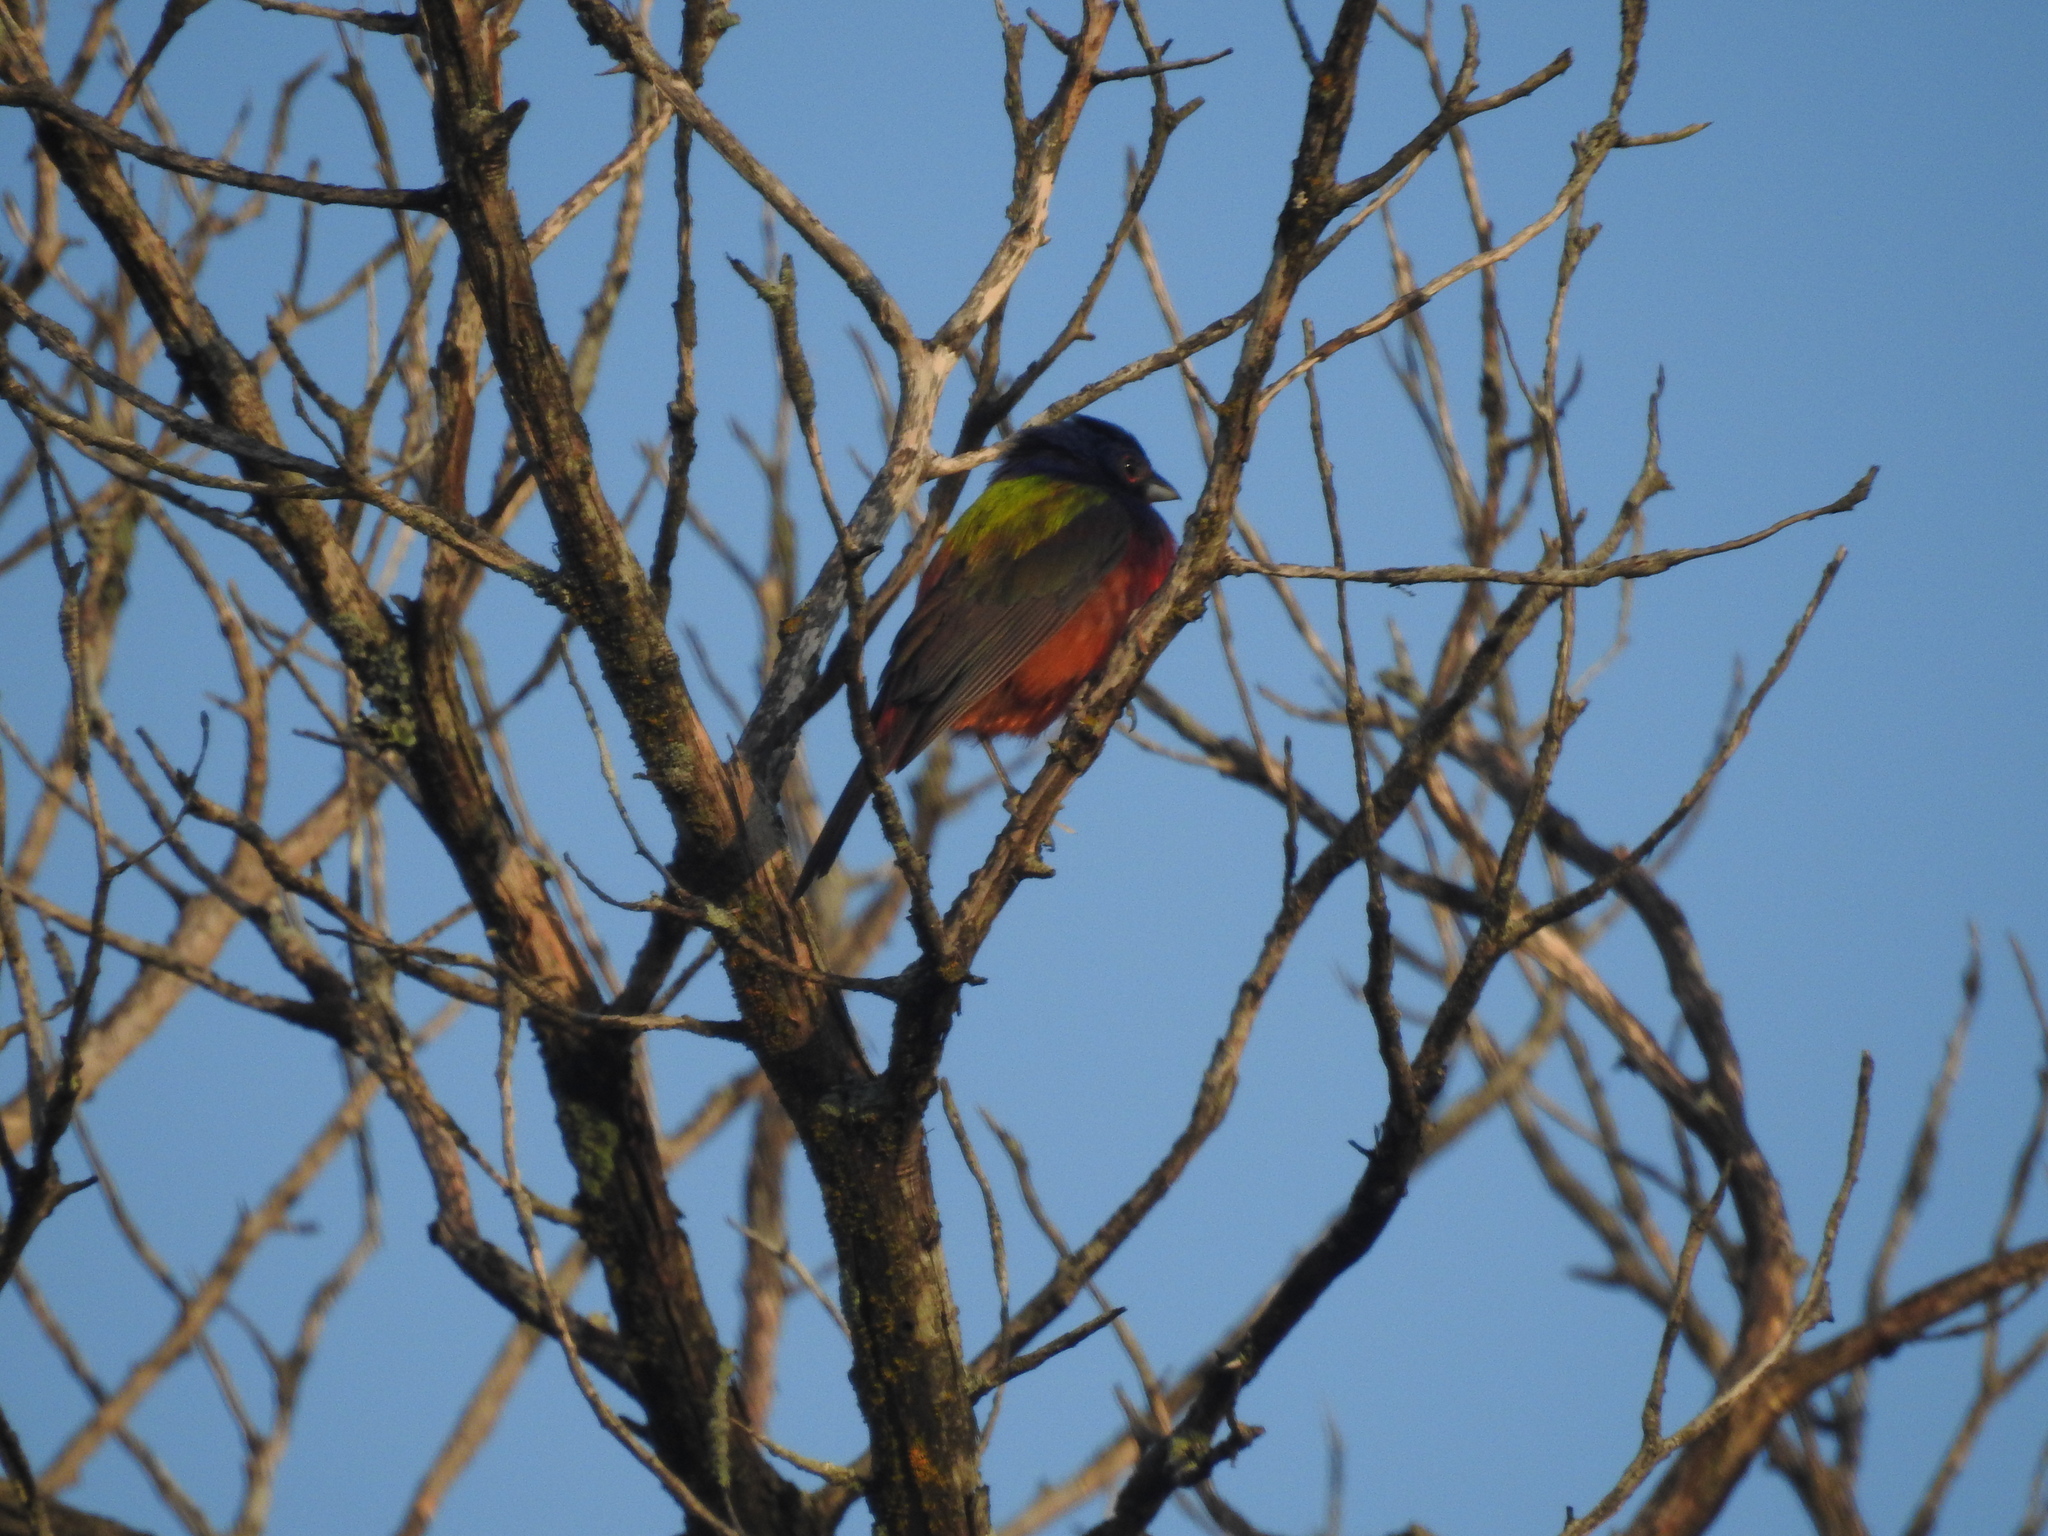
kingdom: Animalia
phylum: Chordata
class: Aves
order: Passeriformes
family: Cardinalidae
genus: Passerina
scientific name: Passerina ciris
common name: Painted bunting
